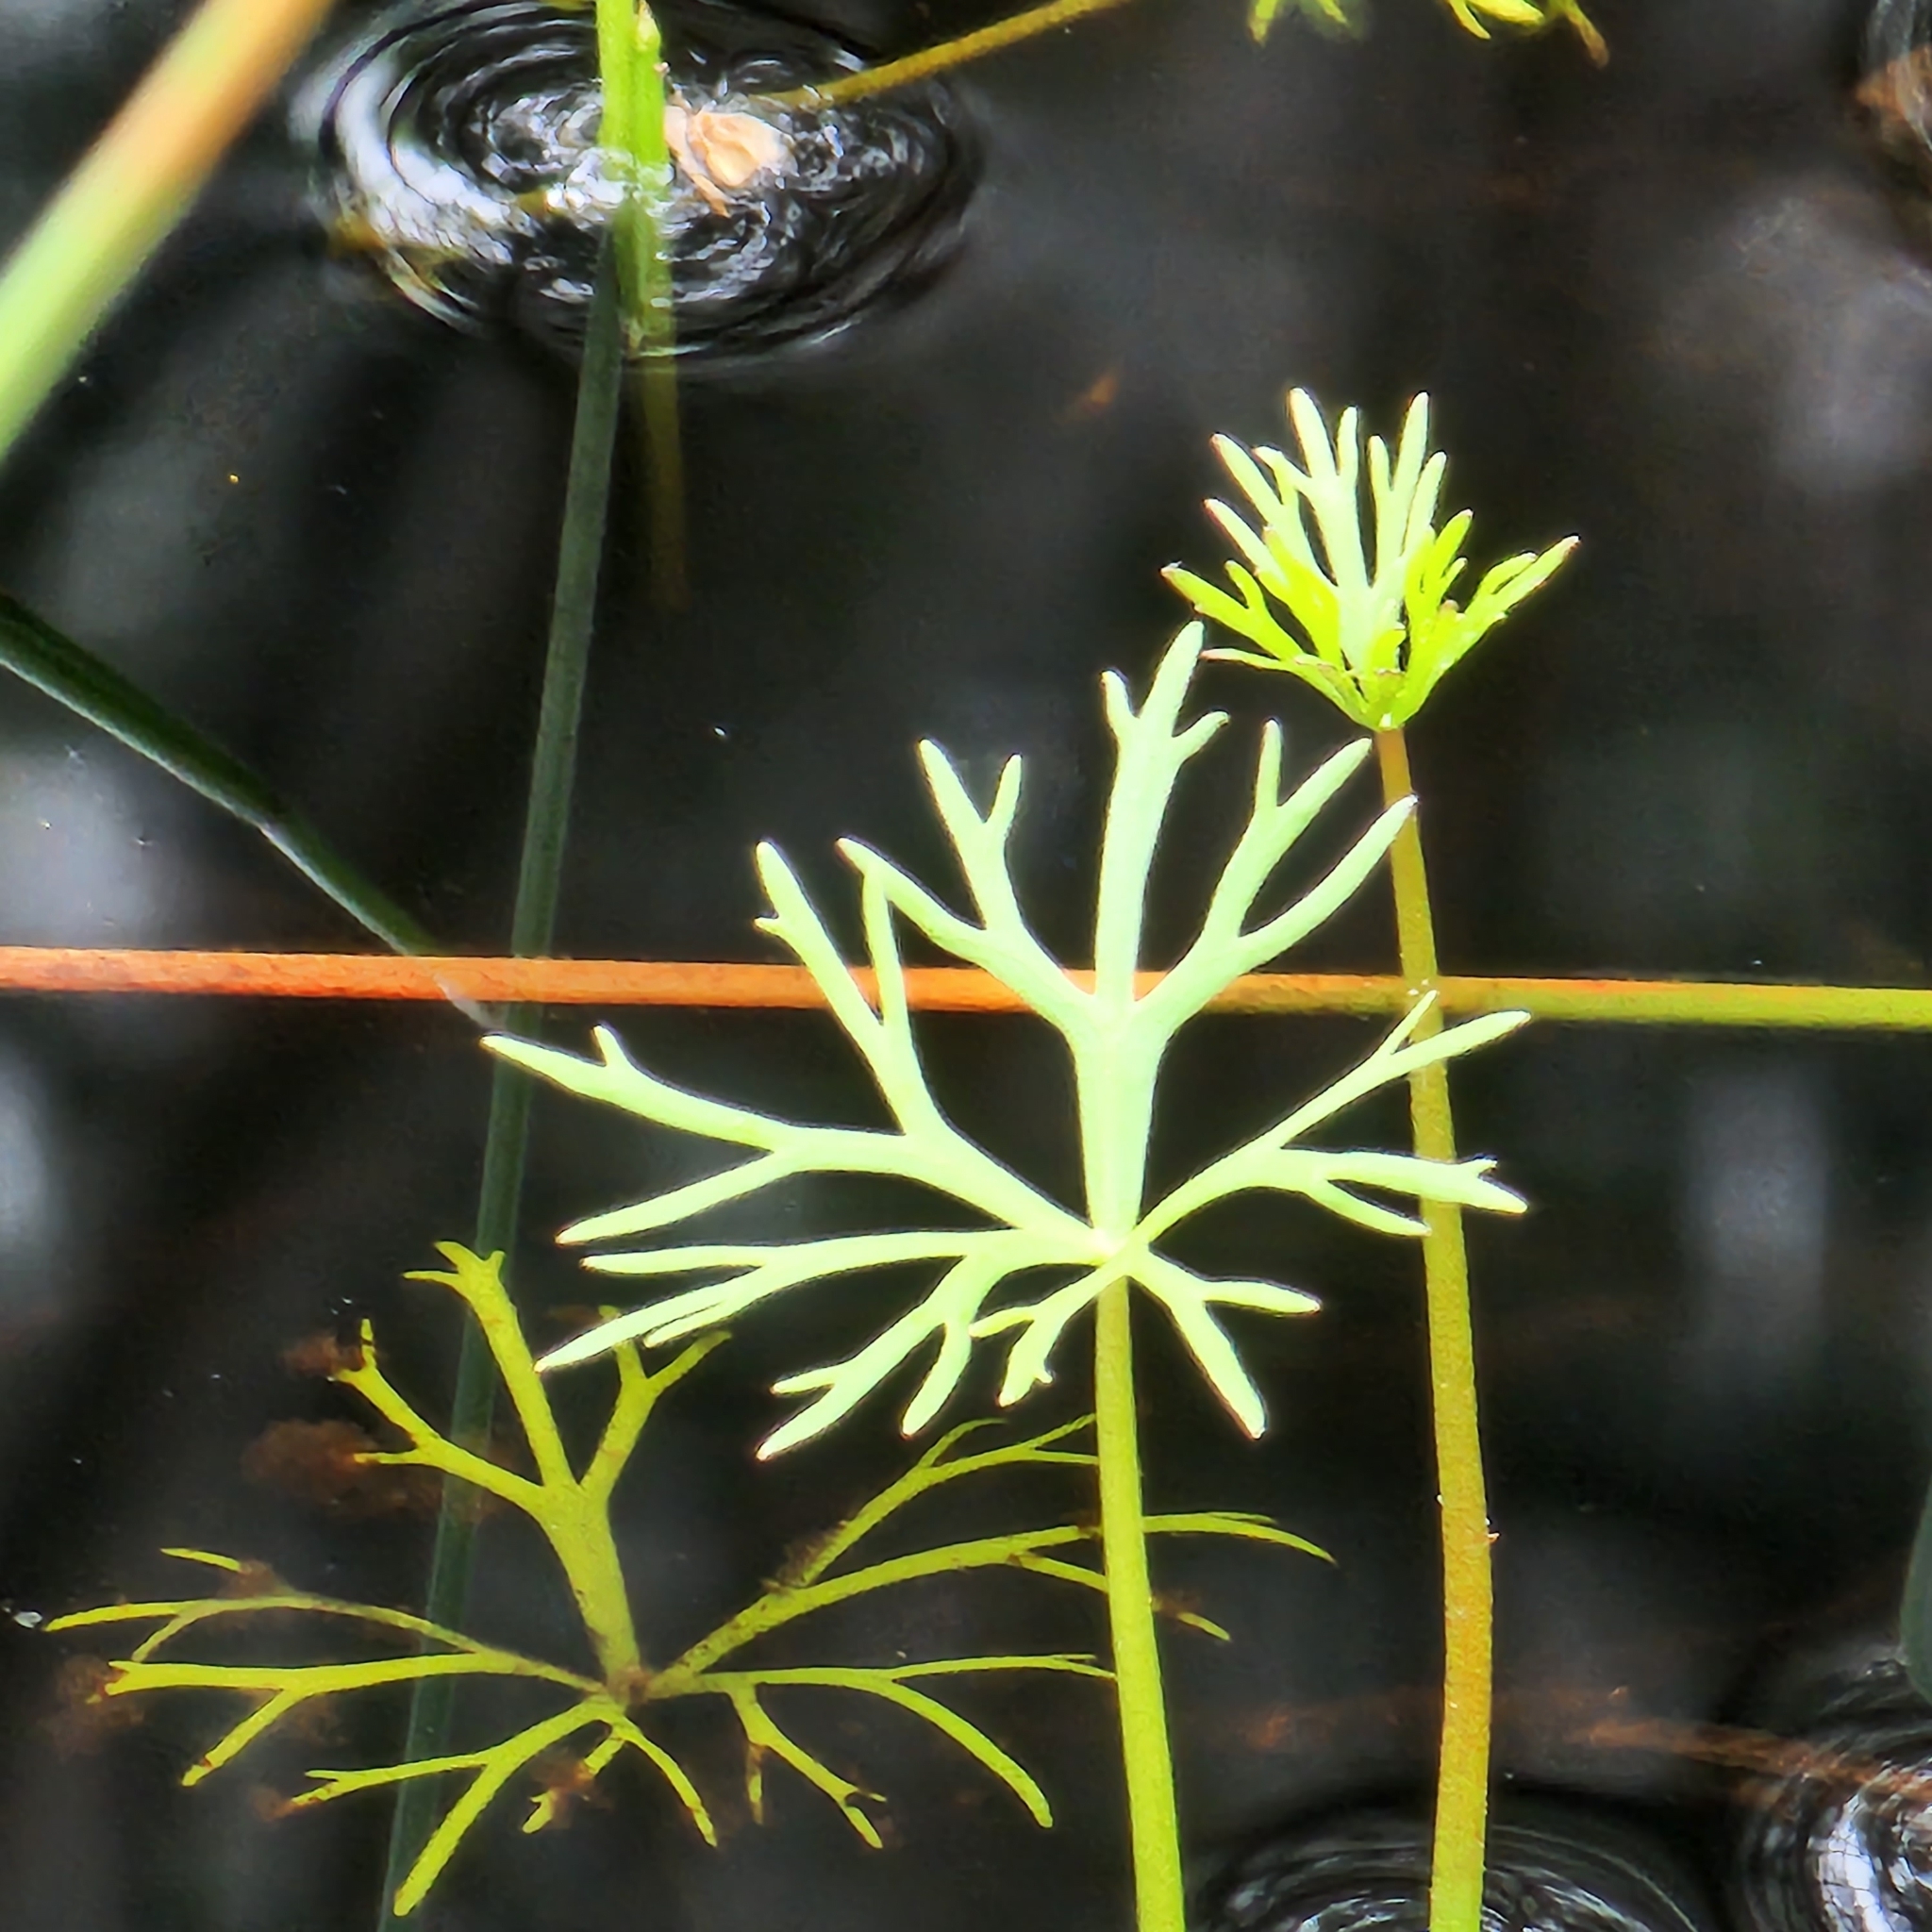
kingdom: Plantae
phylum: Tracheophyta
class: Magnoliopsida
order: Ranunculales
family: Ranunculaceae
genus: Ranunculus
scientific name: Ranunculus inundatus
